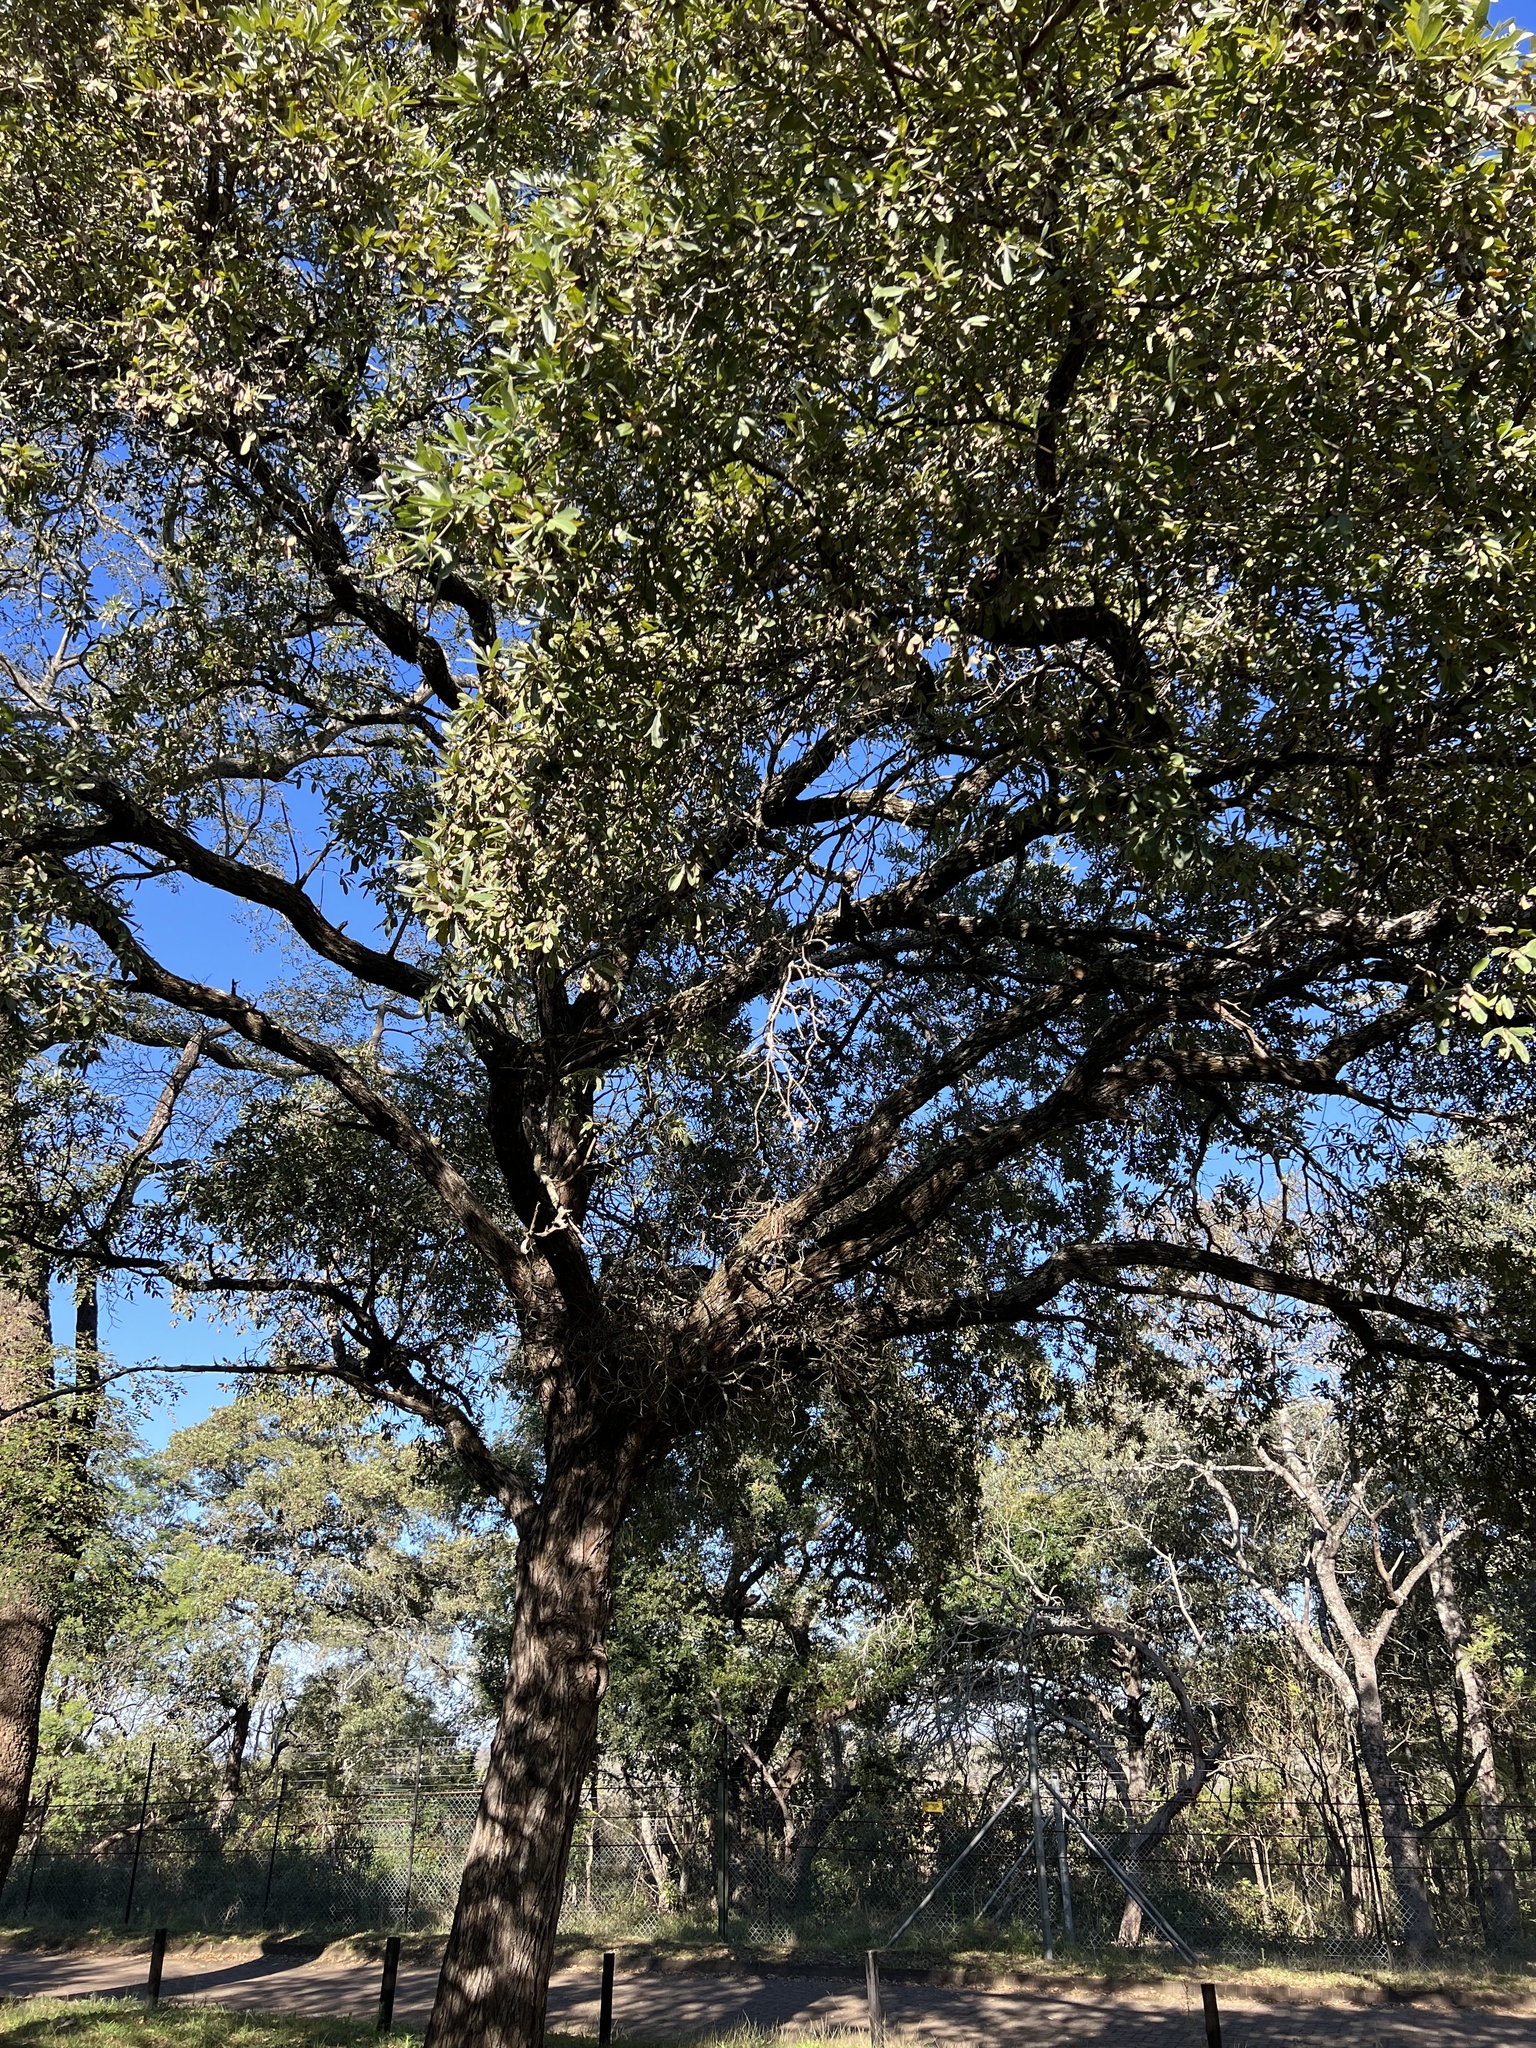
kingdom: Plantae
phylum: Tracheophyta
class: Magnoliopsida
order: Myrtales
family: Combretaceae
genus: Terminalia
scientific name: Terminalia sericea
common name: Clusterleaf
